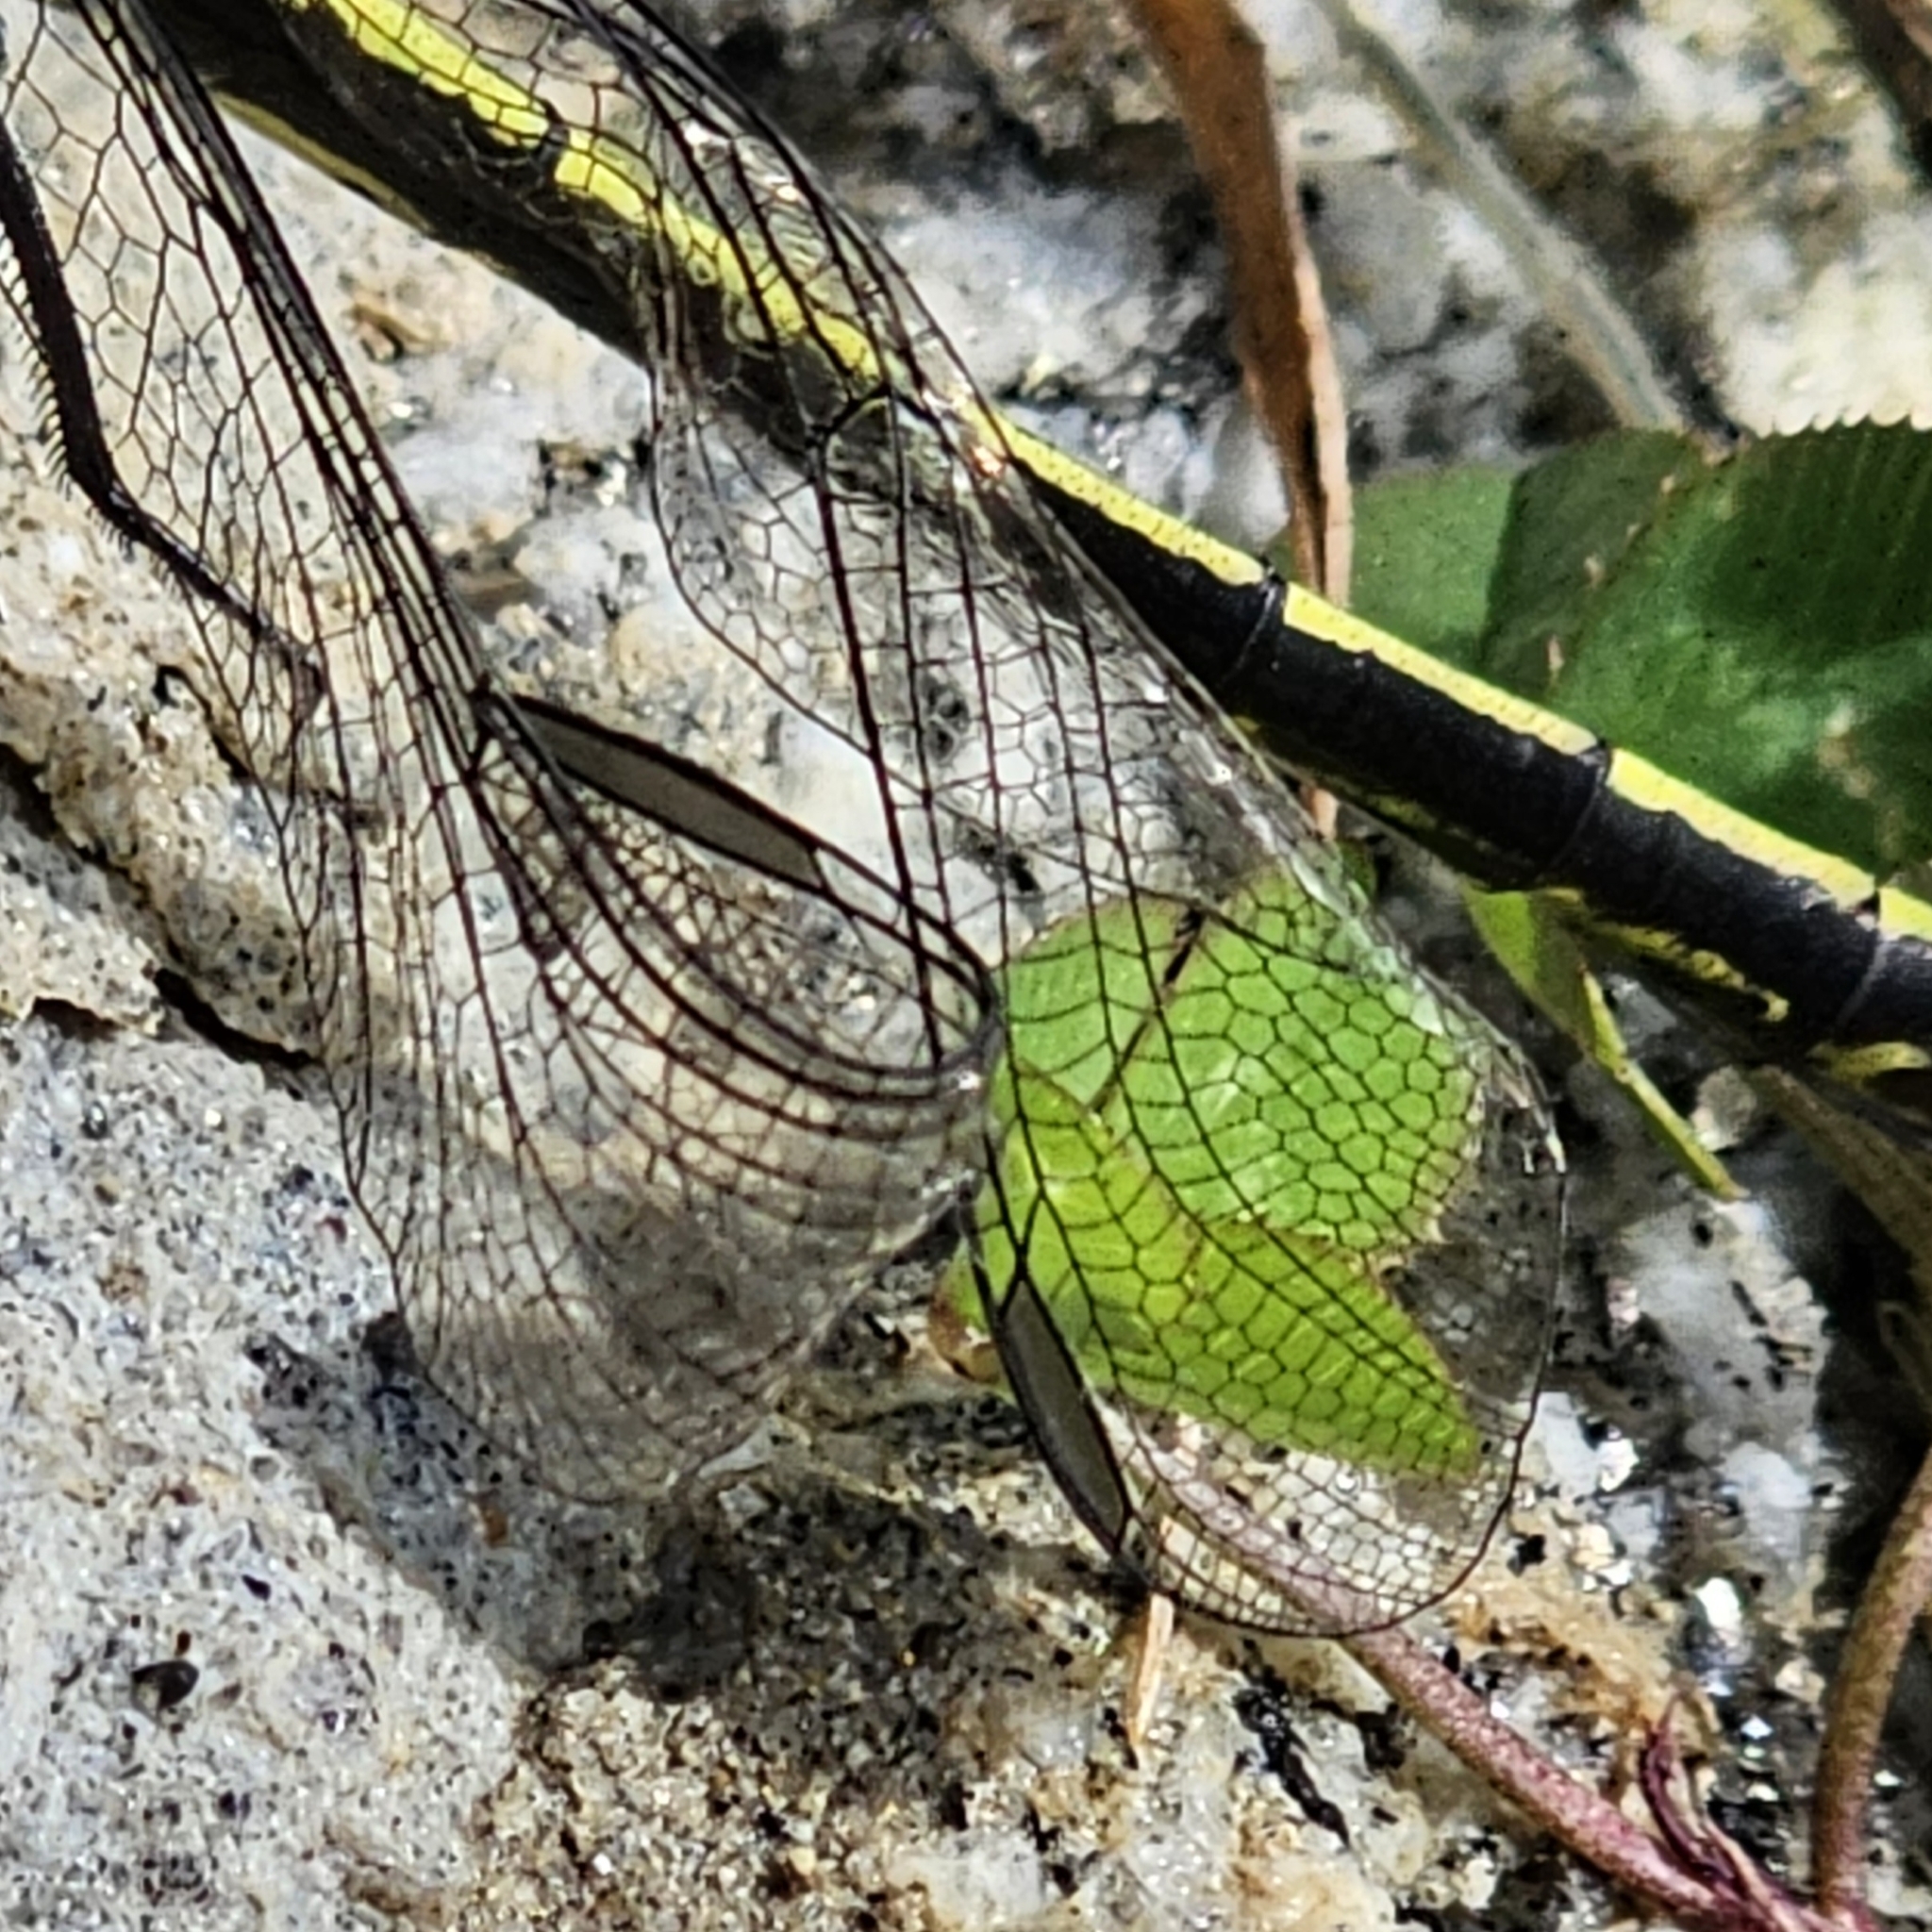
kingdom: Animalia
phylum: Arthropoda
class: Insecta
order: Odonata
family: Gomphidae
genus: Dromogomphus
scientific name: Dromogomphus spinosus
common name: Black-shouldered spinyleg
